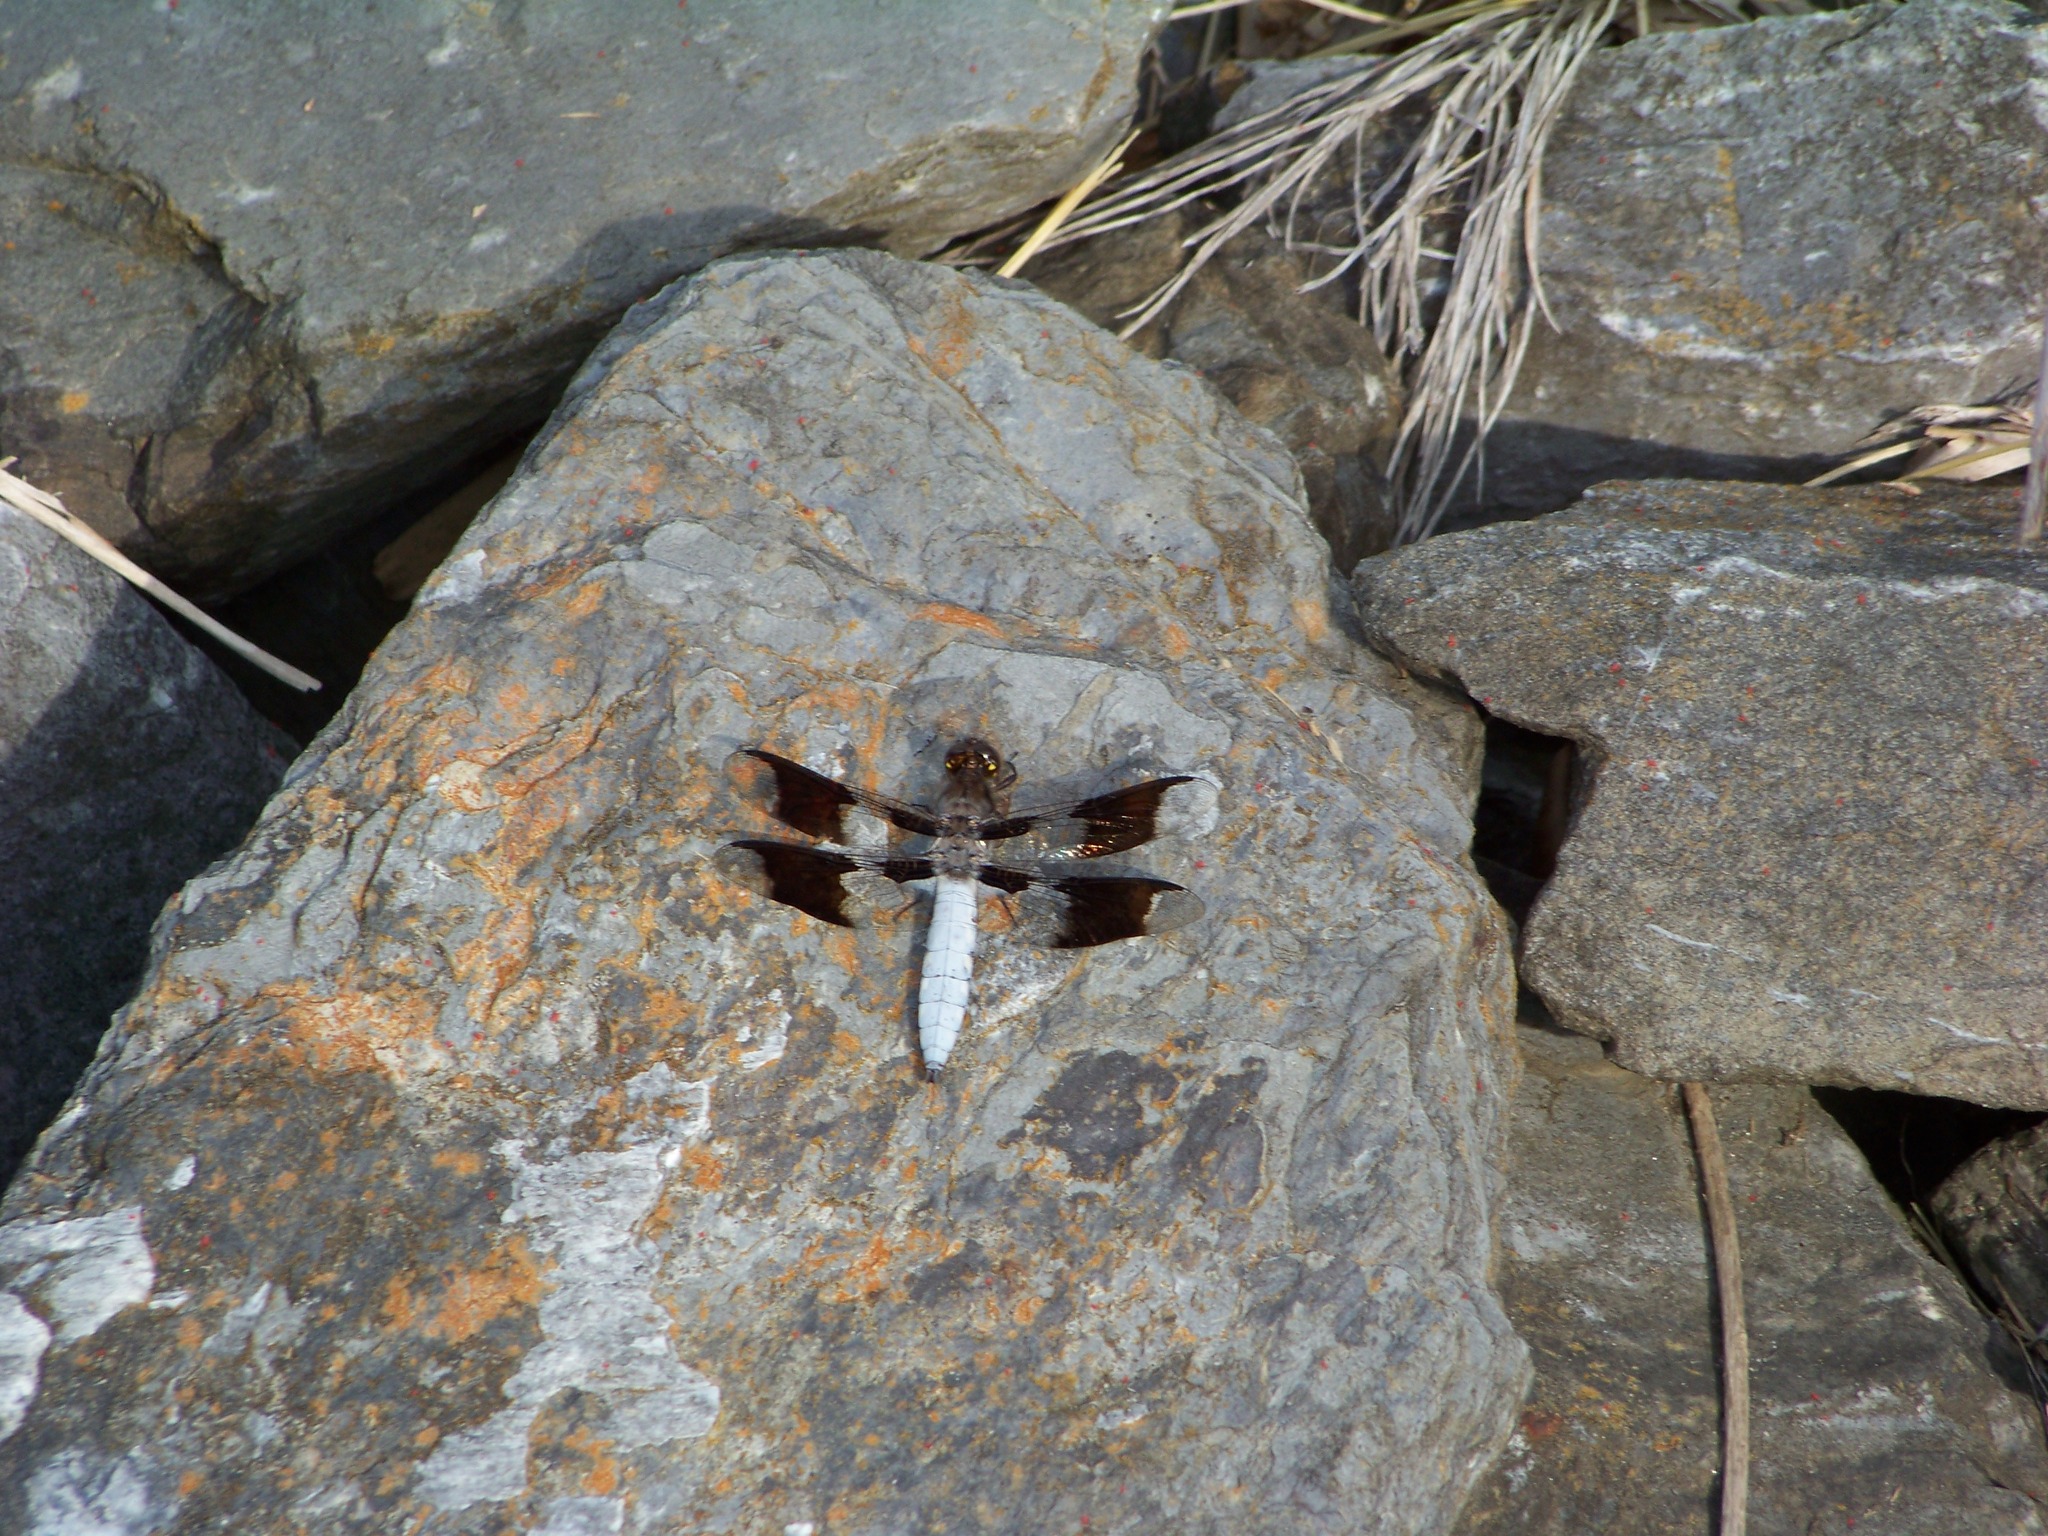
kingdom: Animalia
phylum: Arthropoda
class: Insecta
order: Odonata
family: Libellulidae
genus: Plathemis
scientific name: Plathemis lydia
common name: Common whitetail
